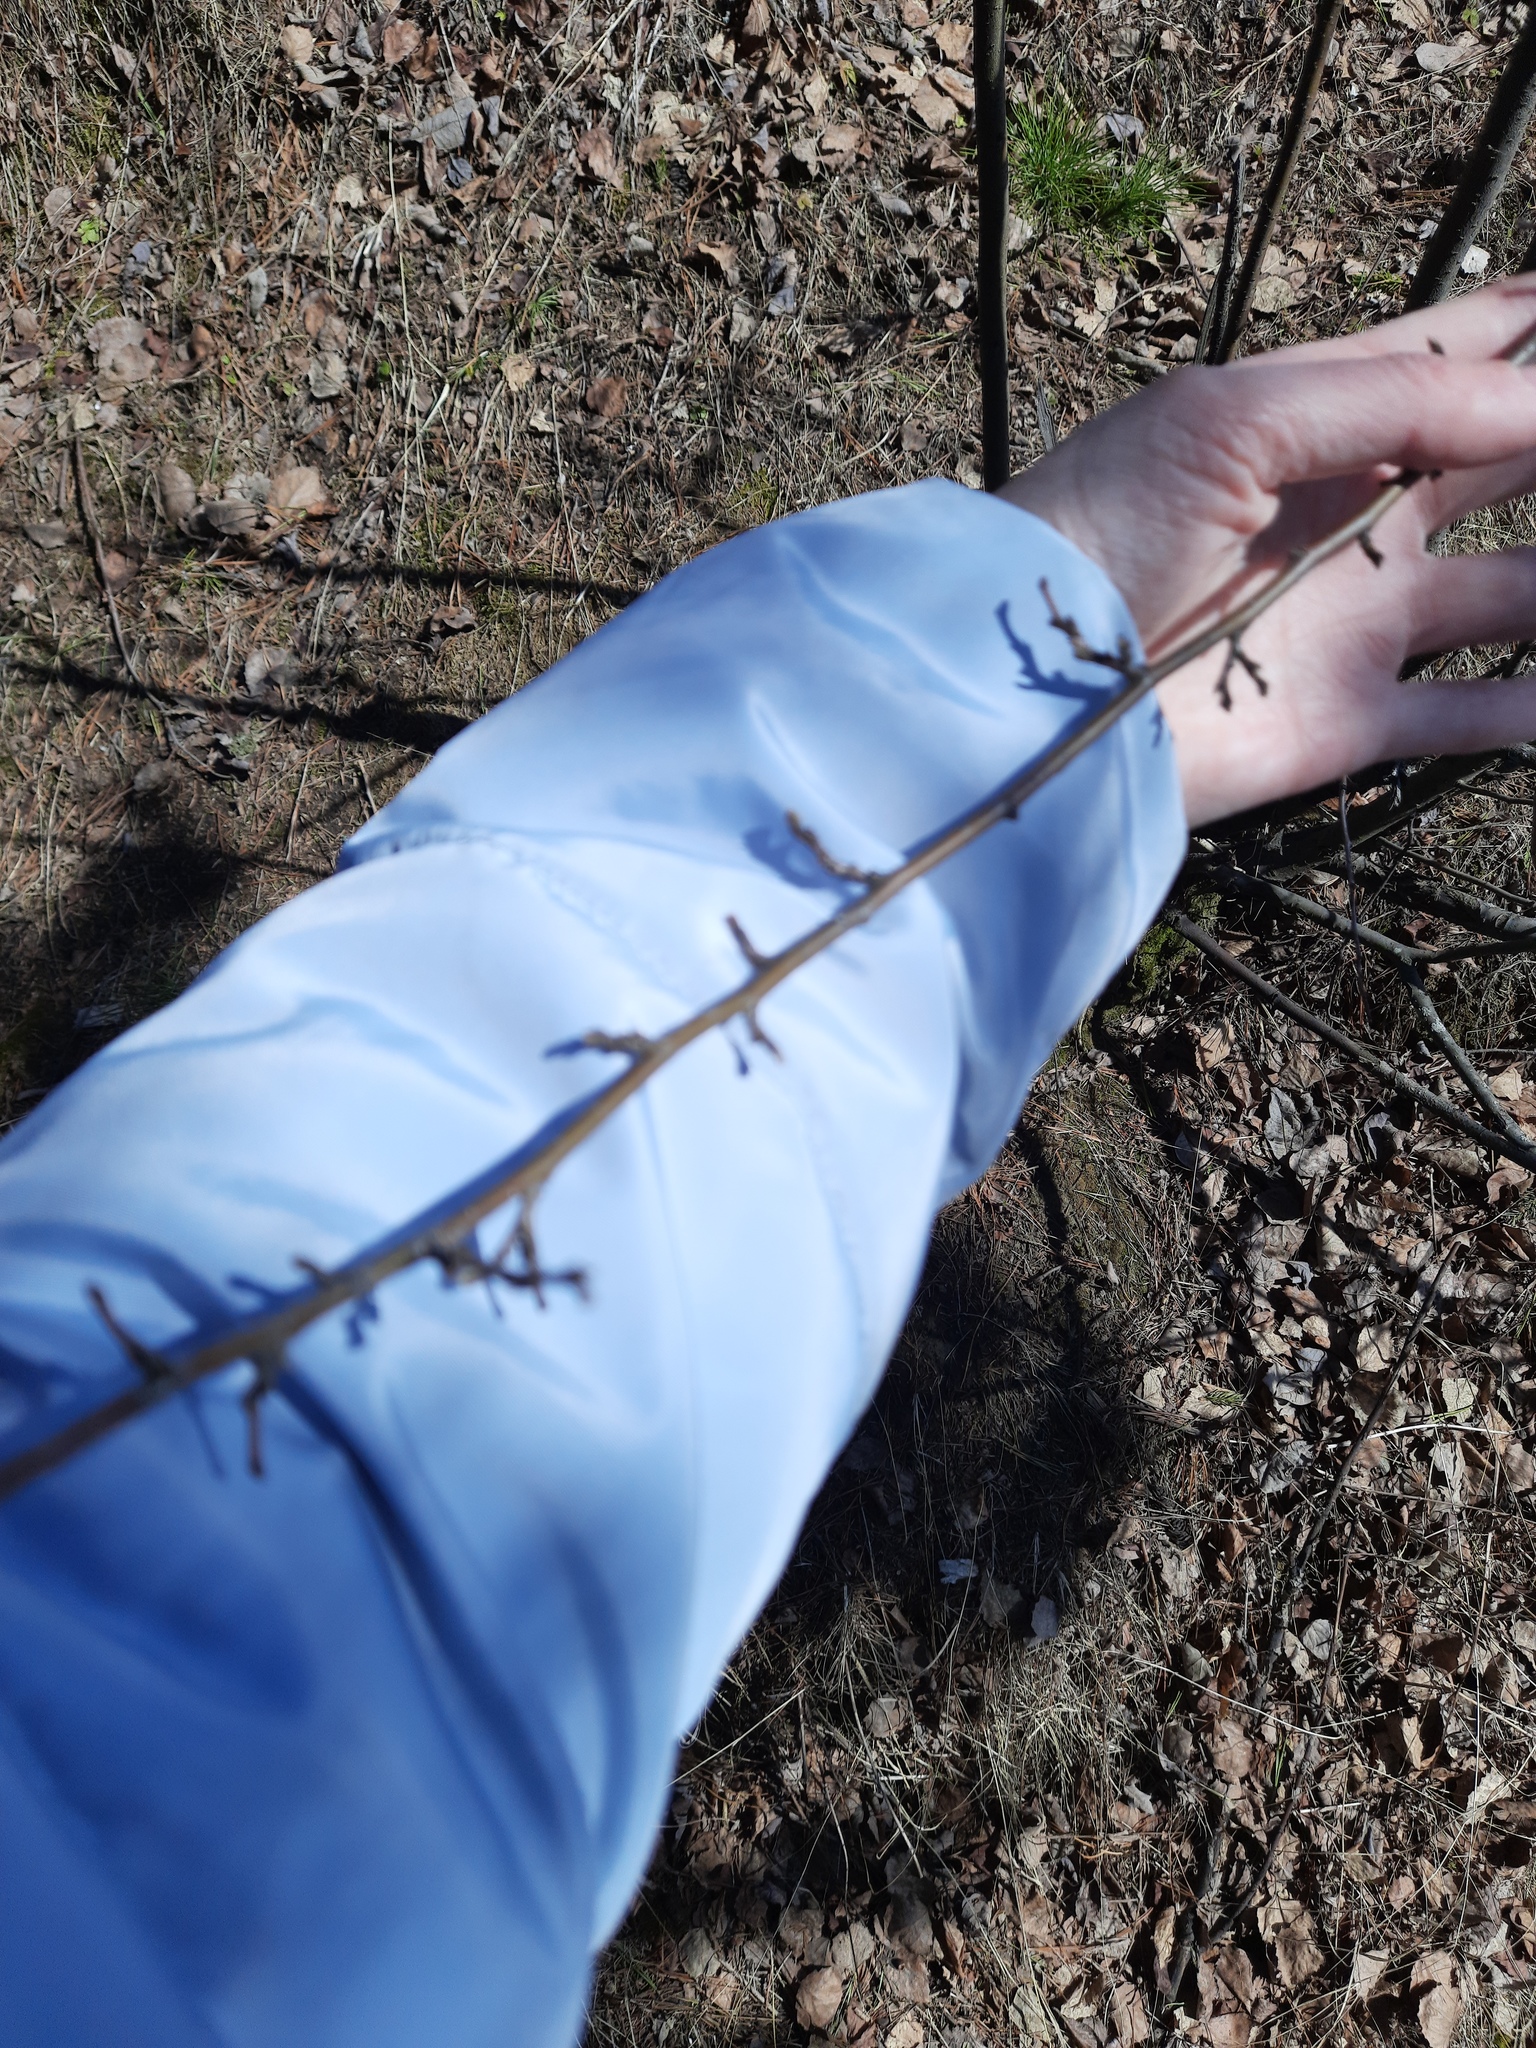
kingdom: Plantae
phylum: Tracheophyta
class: Magnoliopsida
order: Rosales
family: Rosaceae
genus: Cotoneaster
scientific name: Cotoneaster melanocarpus
